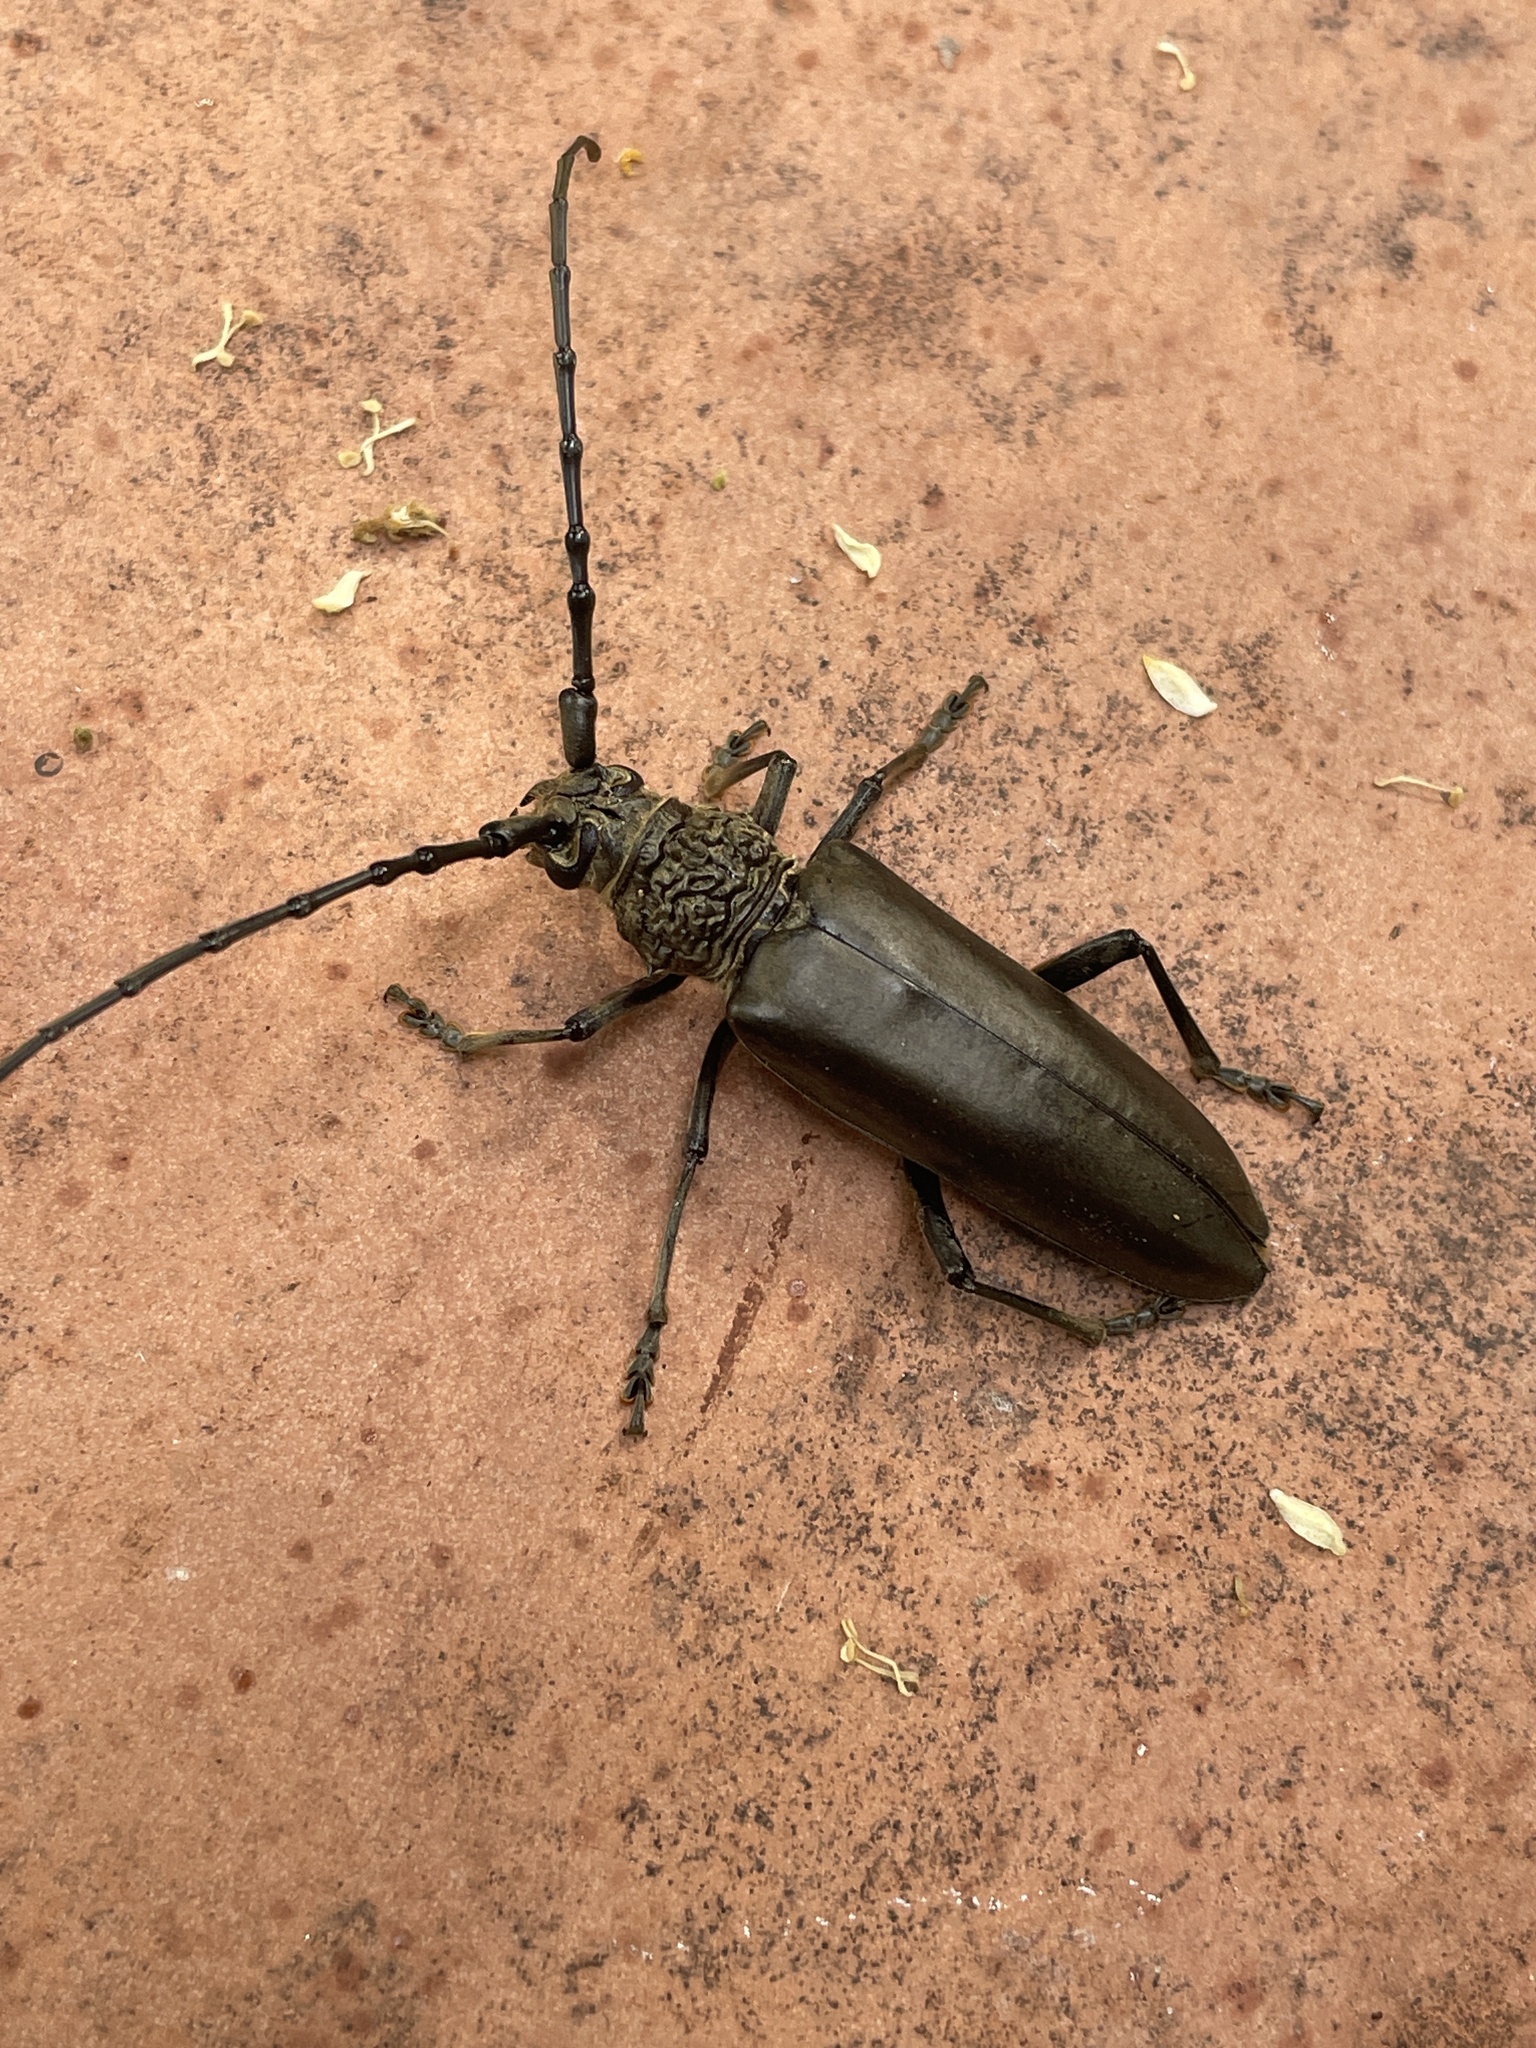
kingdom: Animalia
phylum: Arthropoda
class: Insecta
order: Coleoptera
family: Cerambycidae
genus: Nadezhdiella
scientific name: Nadezhdiella cantori
